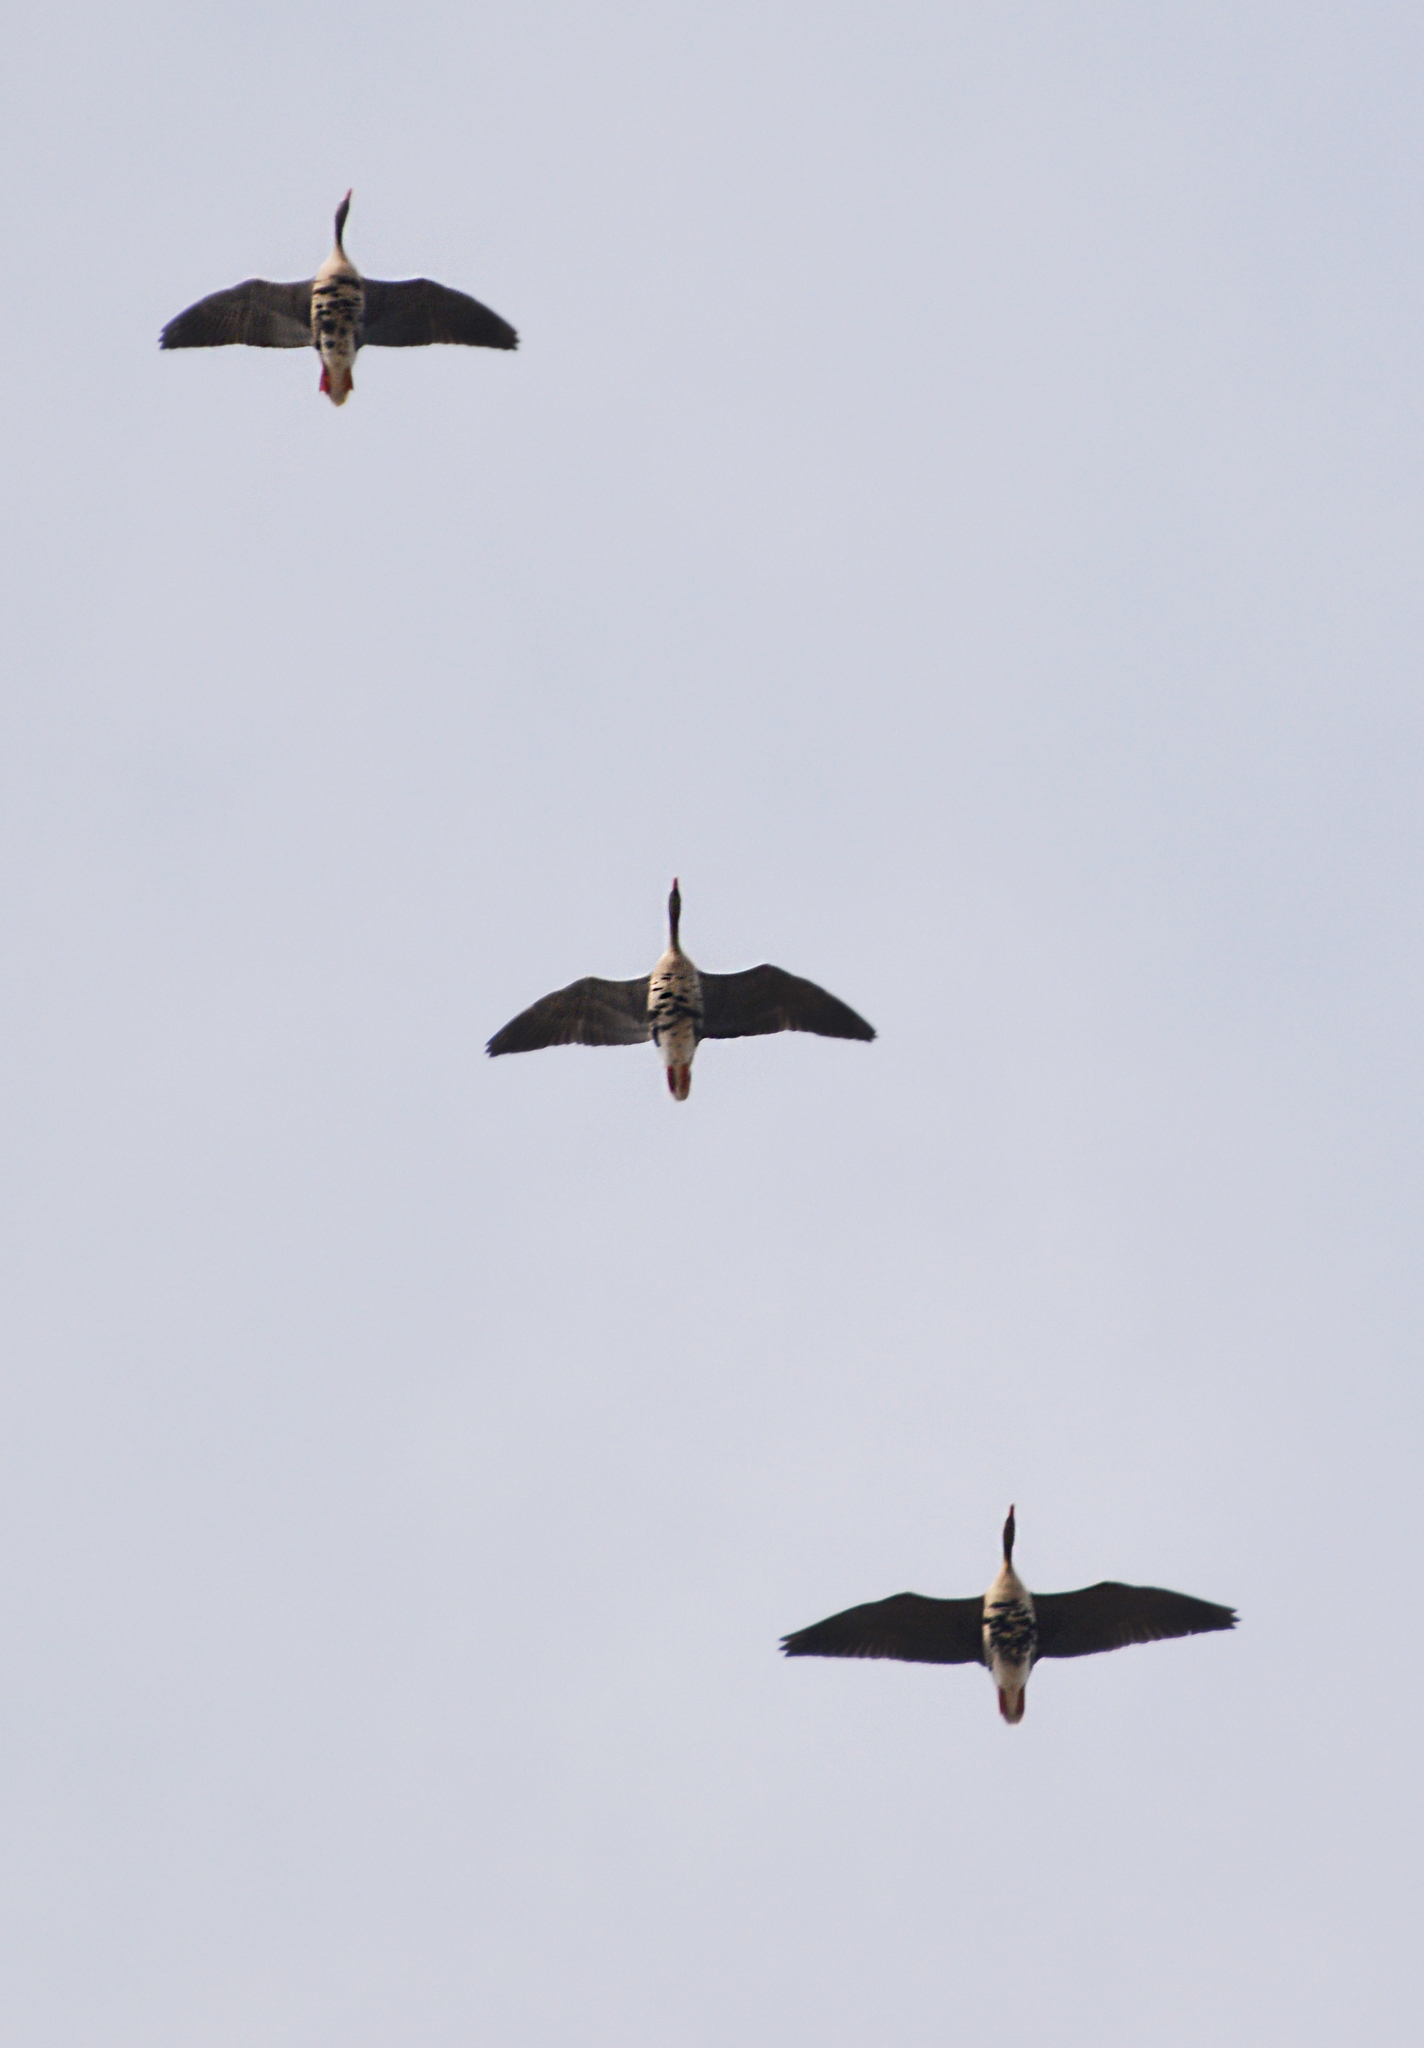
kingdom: Animalia
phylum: Chordata
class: Aves
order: Anseriformes
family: Anatidae
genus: Anser
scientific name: Anser albifrons
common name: Greater white-fronted goose
